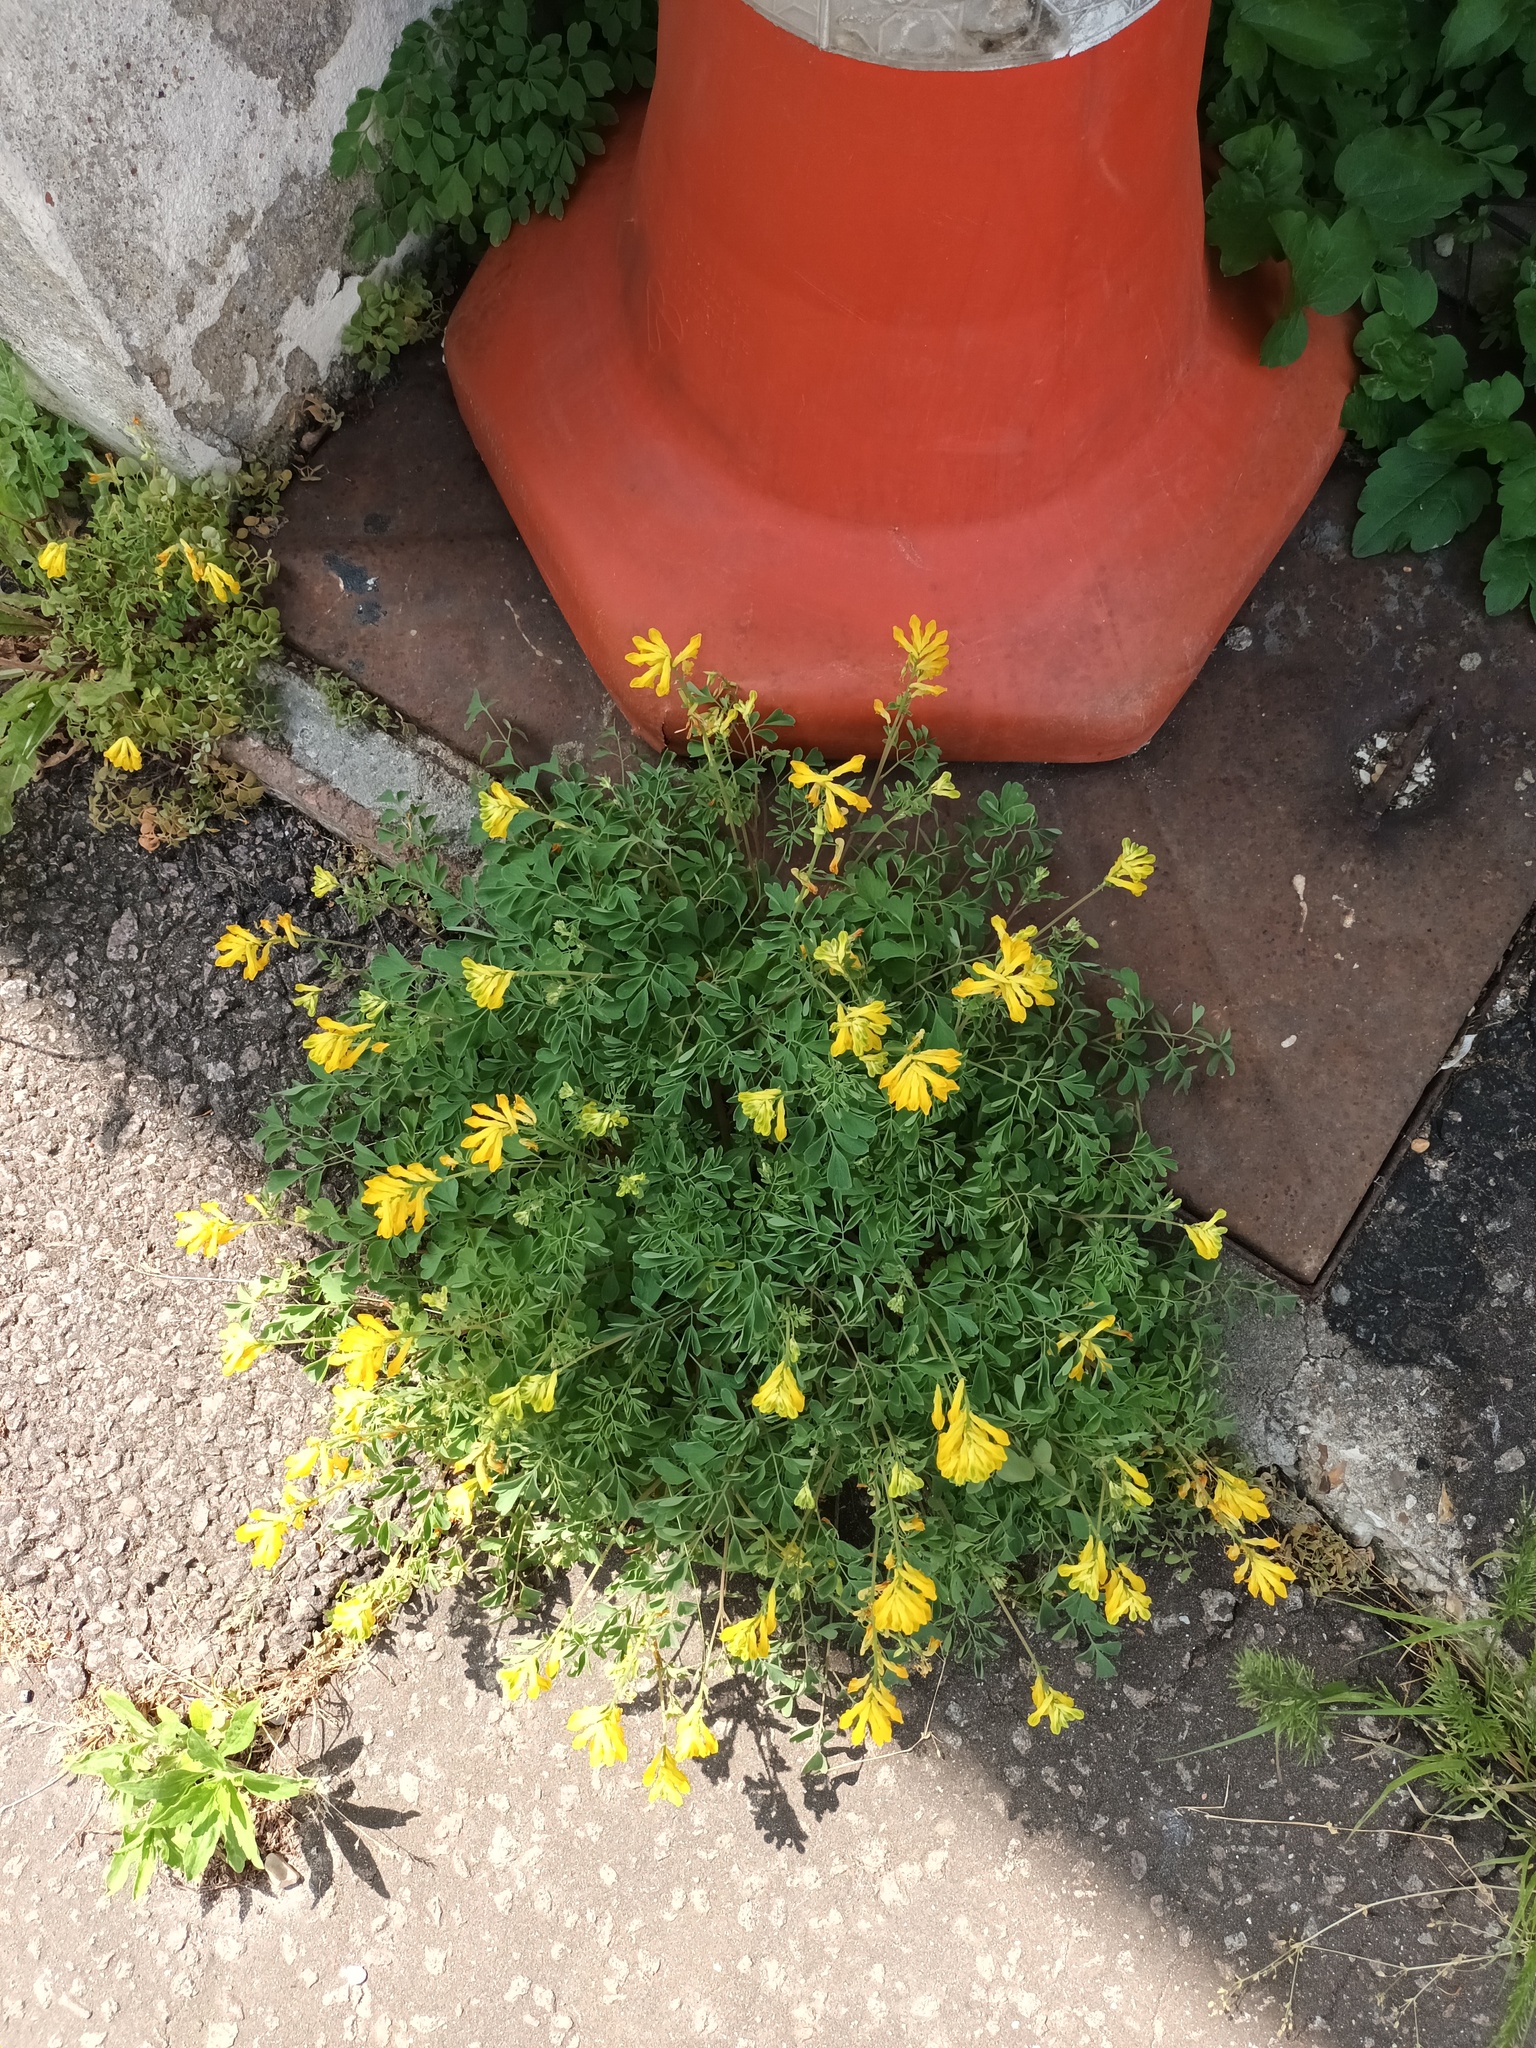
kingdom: Plantae
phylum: Tracheophyta
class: Magnoliopsida
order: Ranunculales
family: Papaveraceae
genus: Pseudofumaria
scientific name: Pseudofumaria lutea
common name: Yellow corydalis
